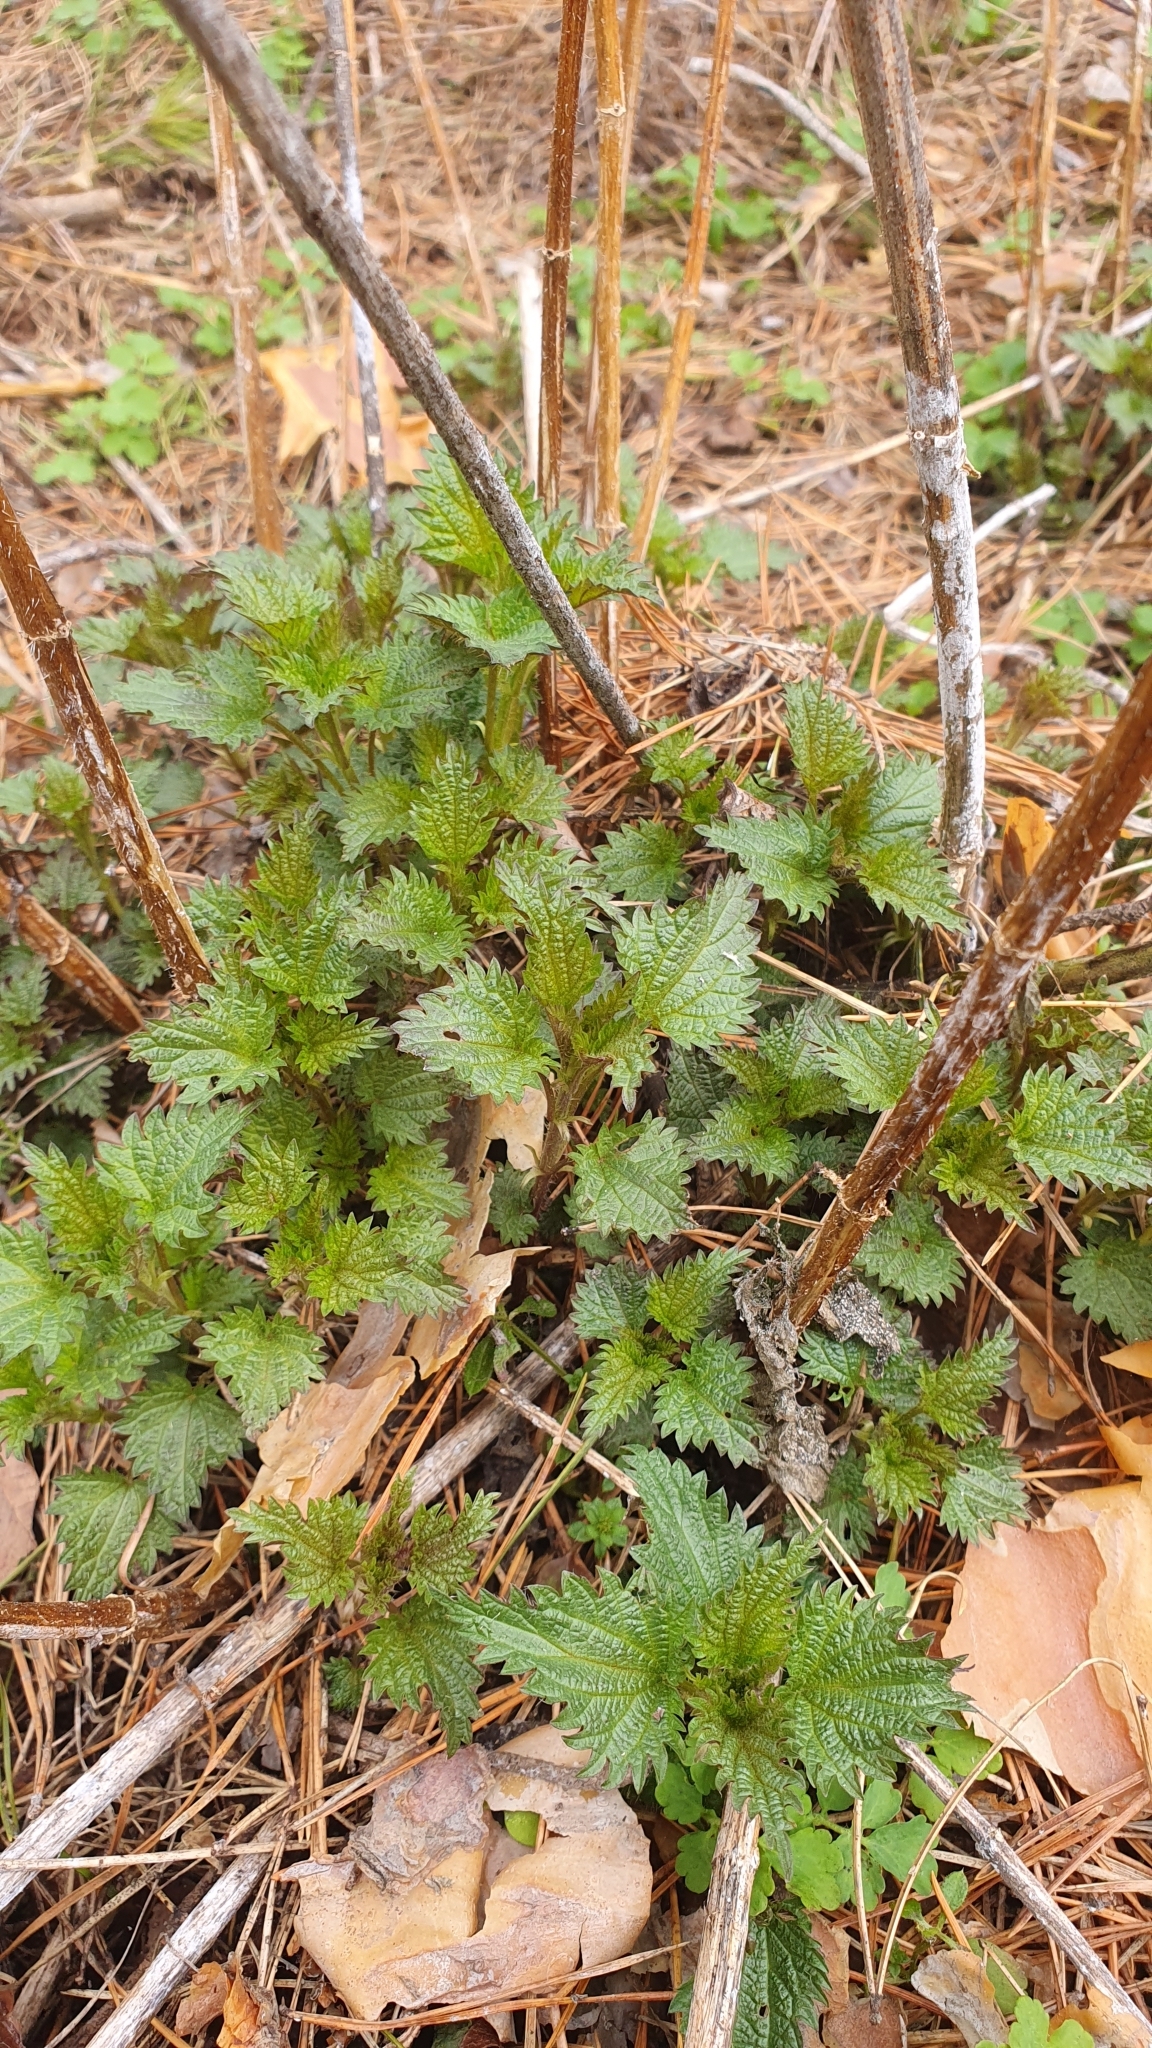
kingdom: Plantae
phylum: Tracheophyta
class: Magnoliopsida
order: Rosales
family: Urticaceae
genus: Urtica
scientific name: Urtica dioica
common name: Common nettle
